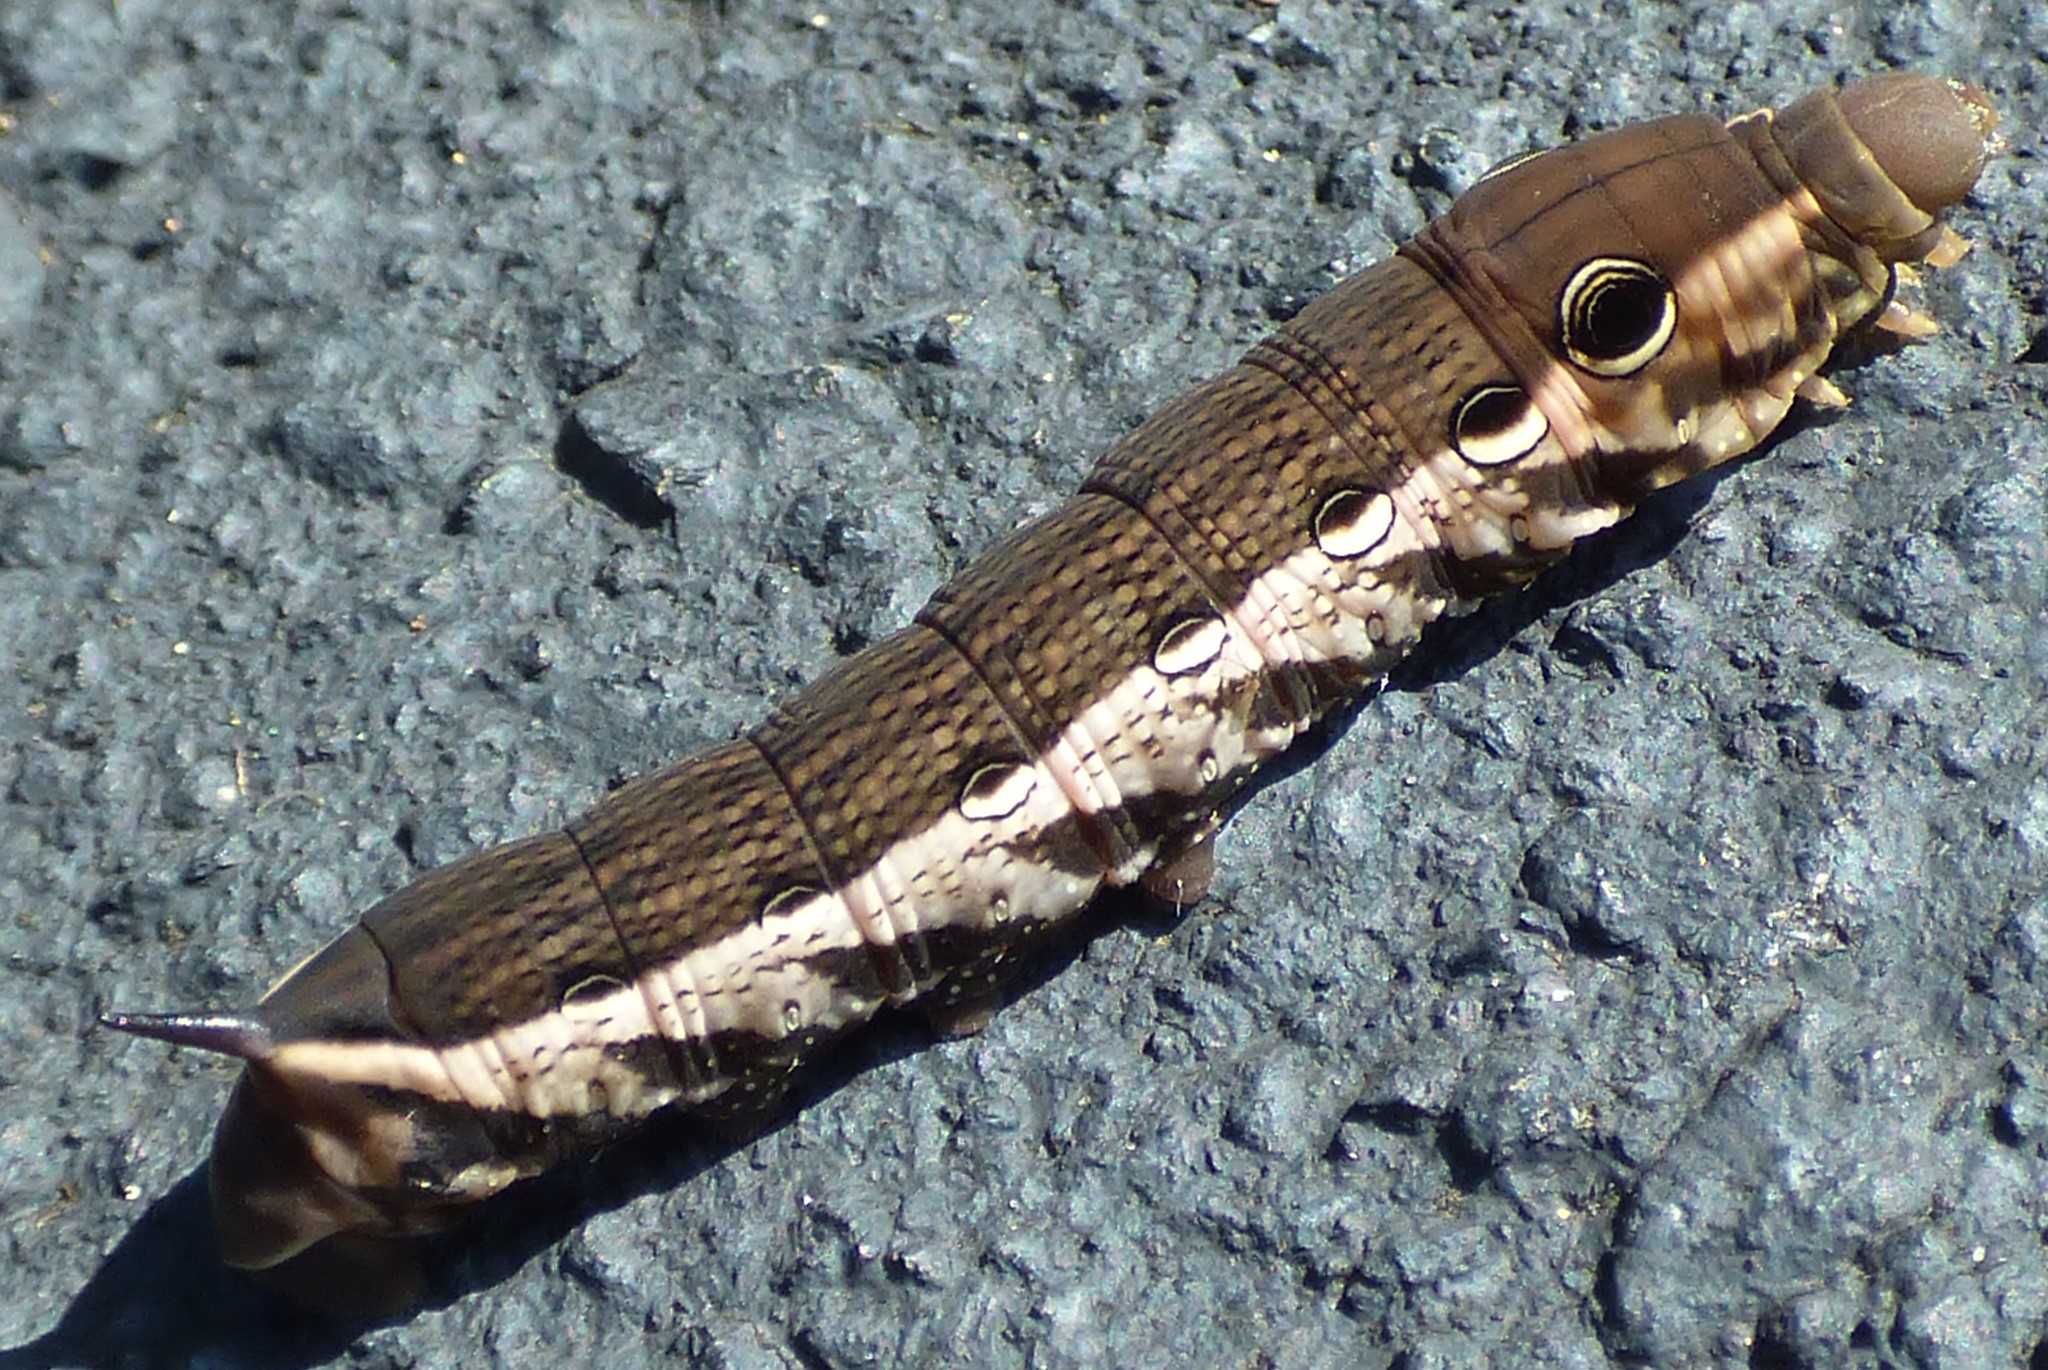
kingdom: Animalia
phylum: Arthropoda
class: Insecta
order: Lepidoptera
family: Sphingidae
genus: Xylophanes
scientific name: Xylophanes tersa
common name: Tersa sphinx
